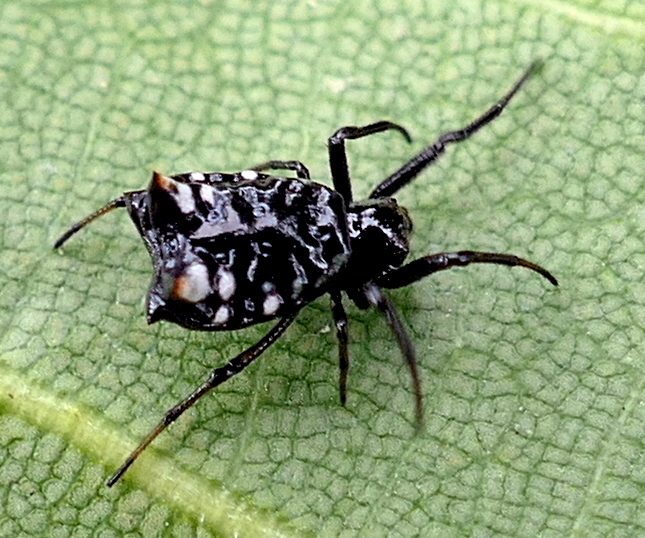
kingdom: Animalia
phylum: Arthropoda
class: Arachnida
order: Araneae
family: Araneidae
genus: Micrathena
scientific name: Micrathena patruelis
